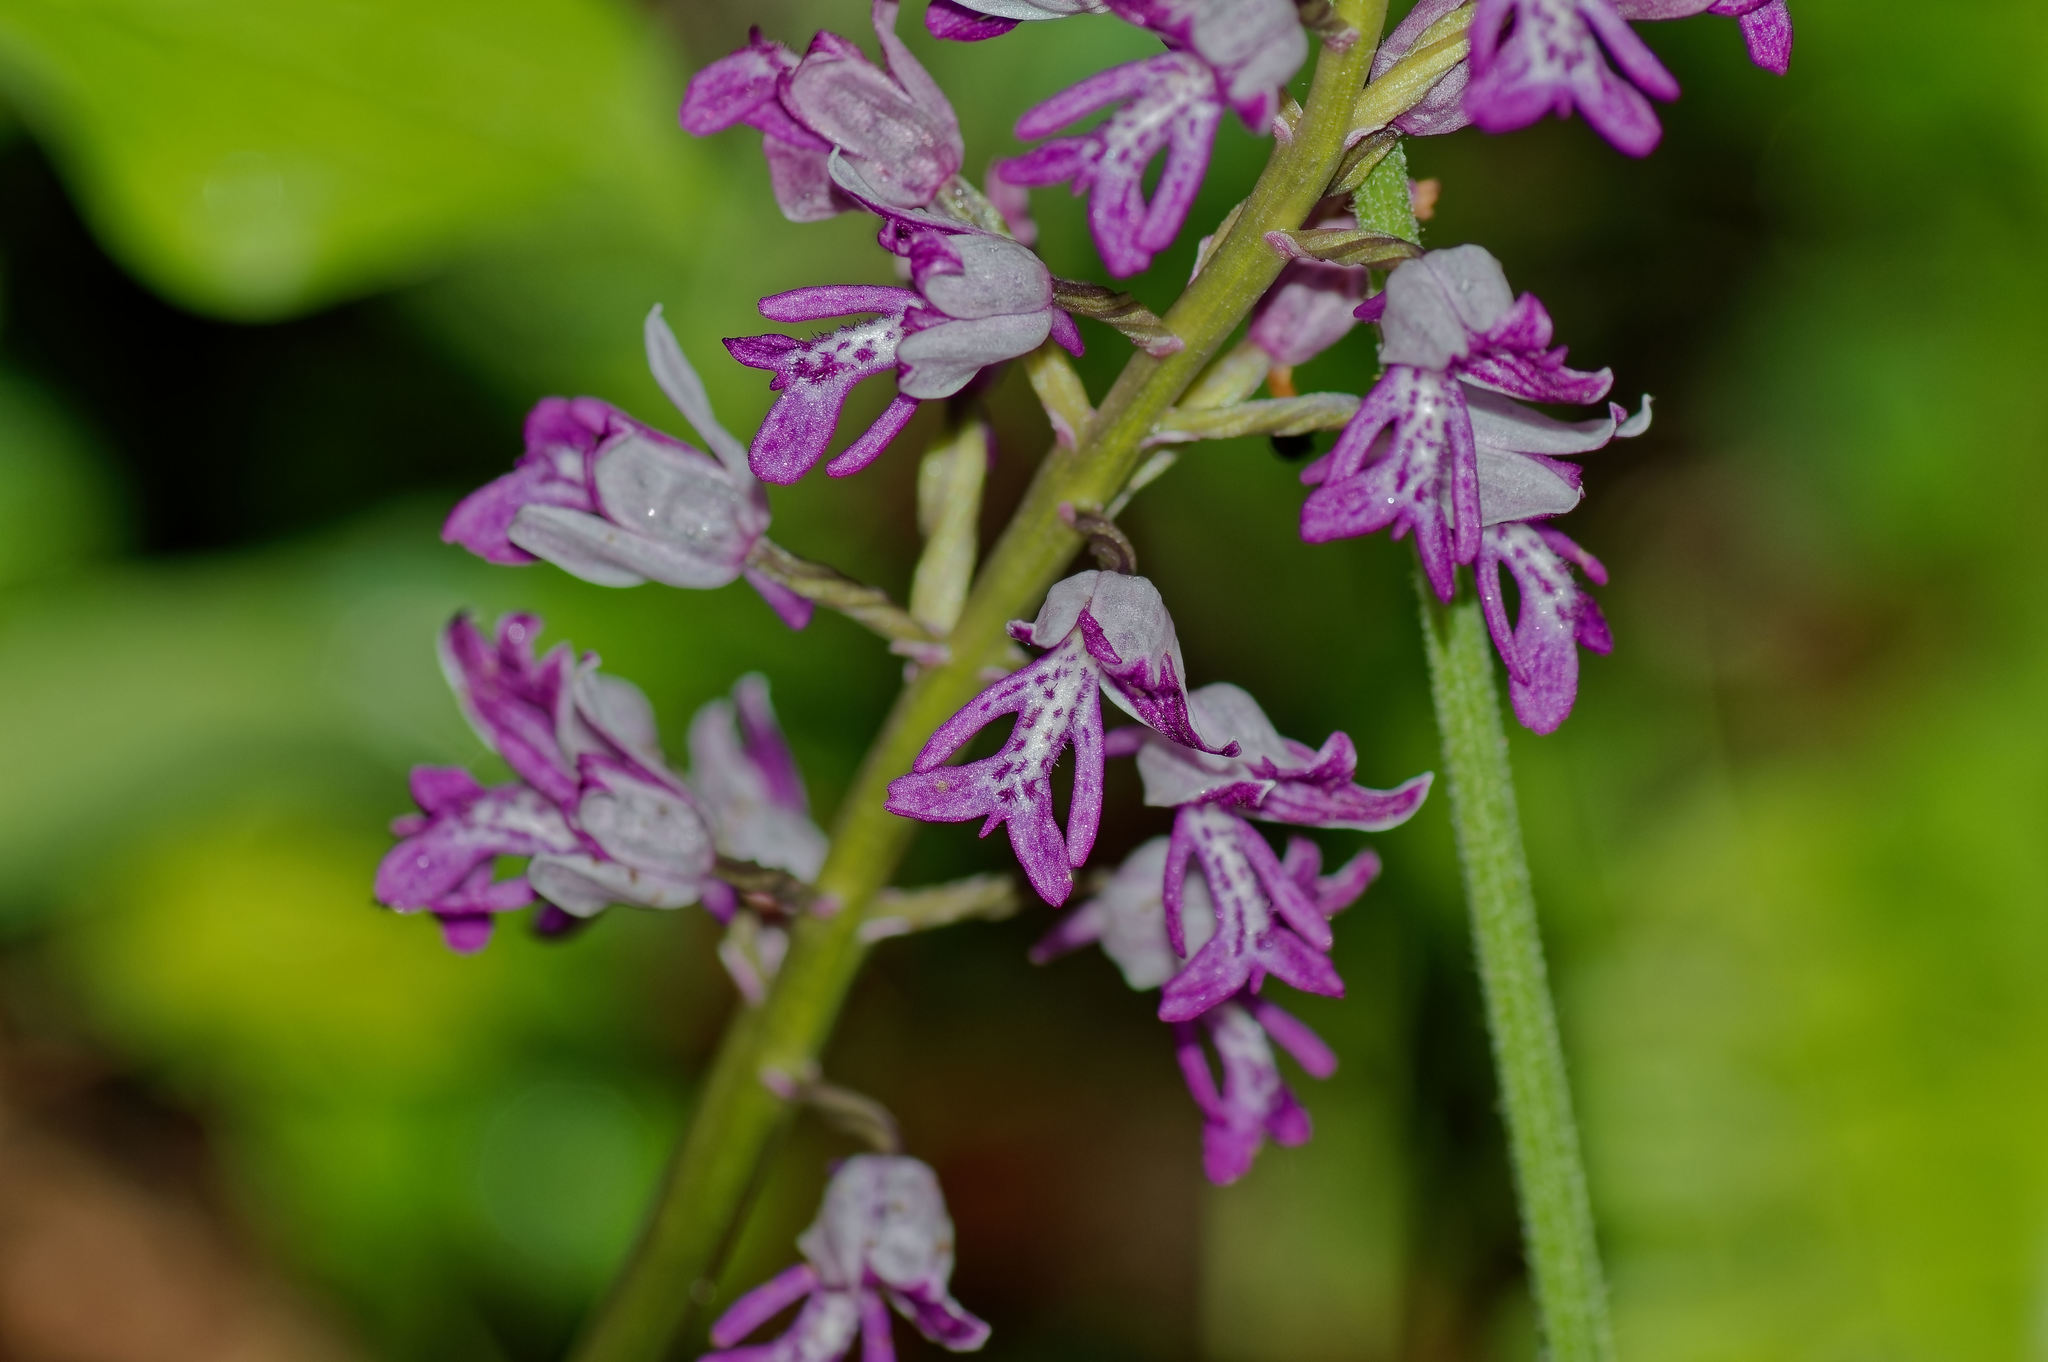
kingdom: Plantae
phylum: Tracheophyta
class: Liliopsida
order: Asparagales
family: Orchidaceae
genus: Orchis
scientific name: Orchis militaris
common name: Military orchid
